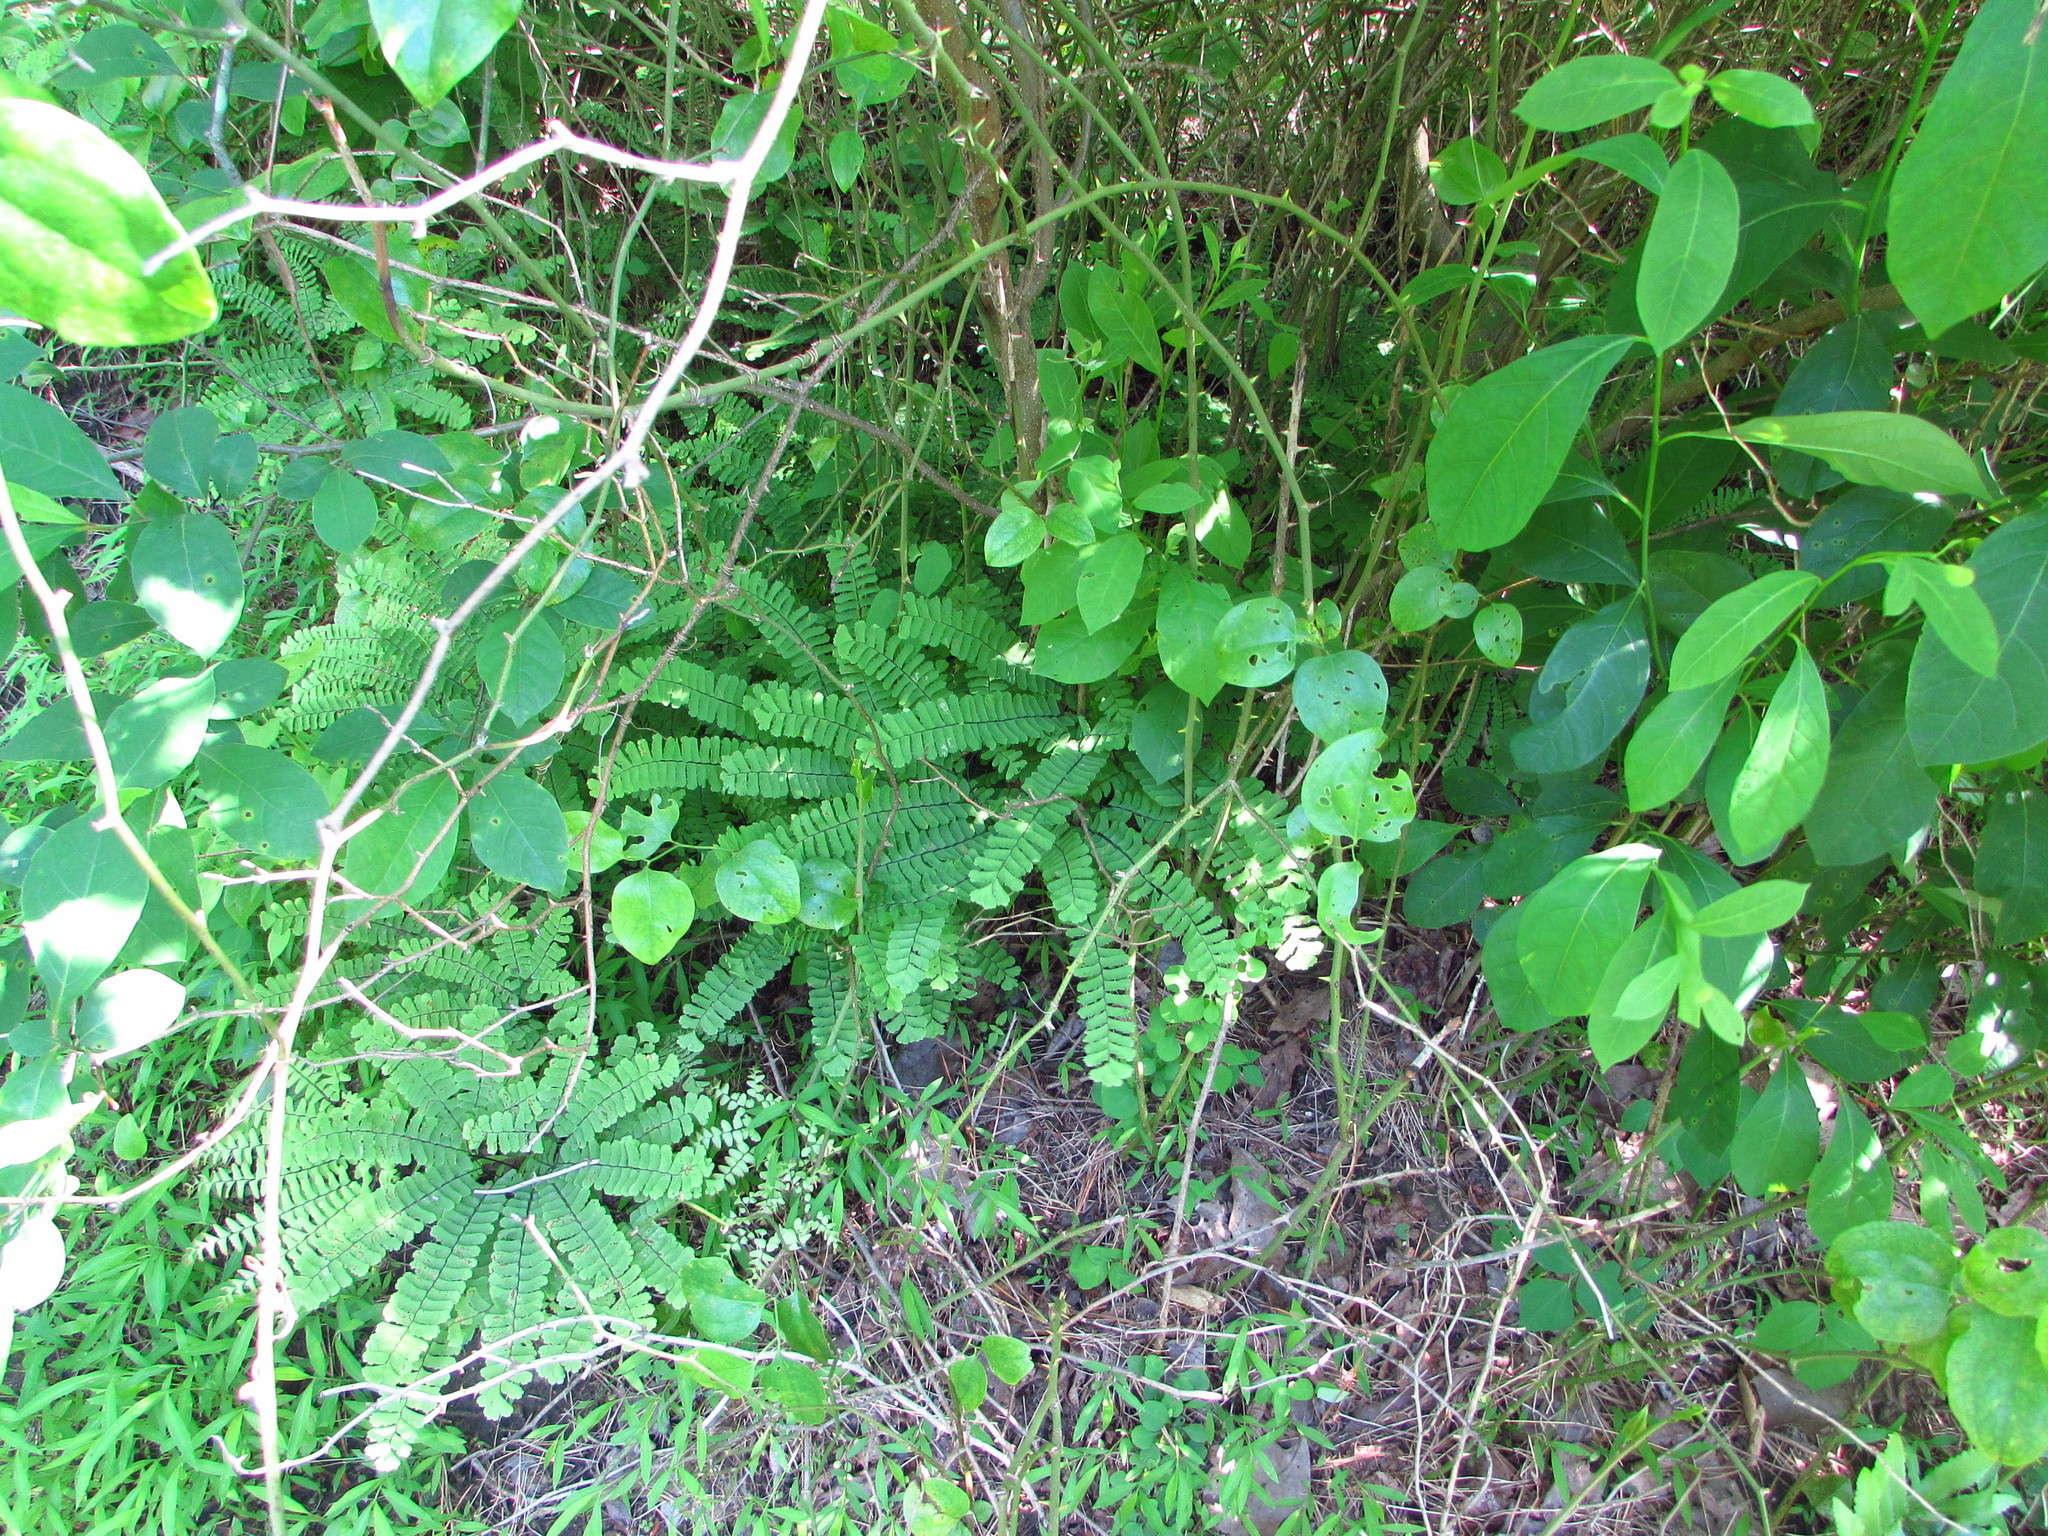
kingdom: Plantae
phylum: Tracheophyta
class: Polypodiopsida
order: Polypodiales
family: Pteridaceae
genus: Adiantum
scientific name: Adiantum pedatum
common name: Five-finger fern
